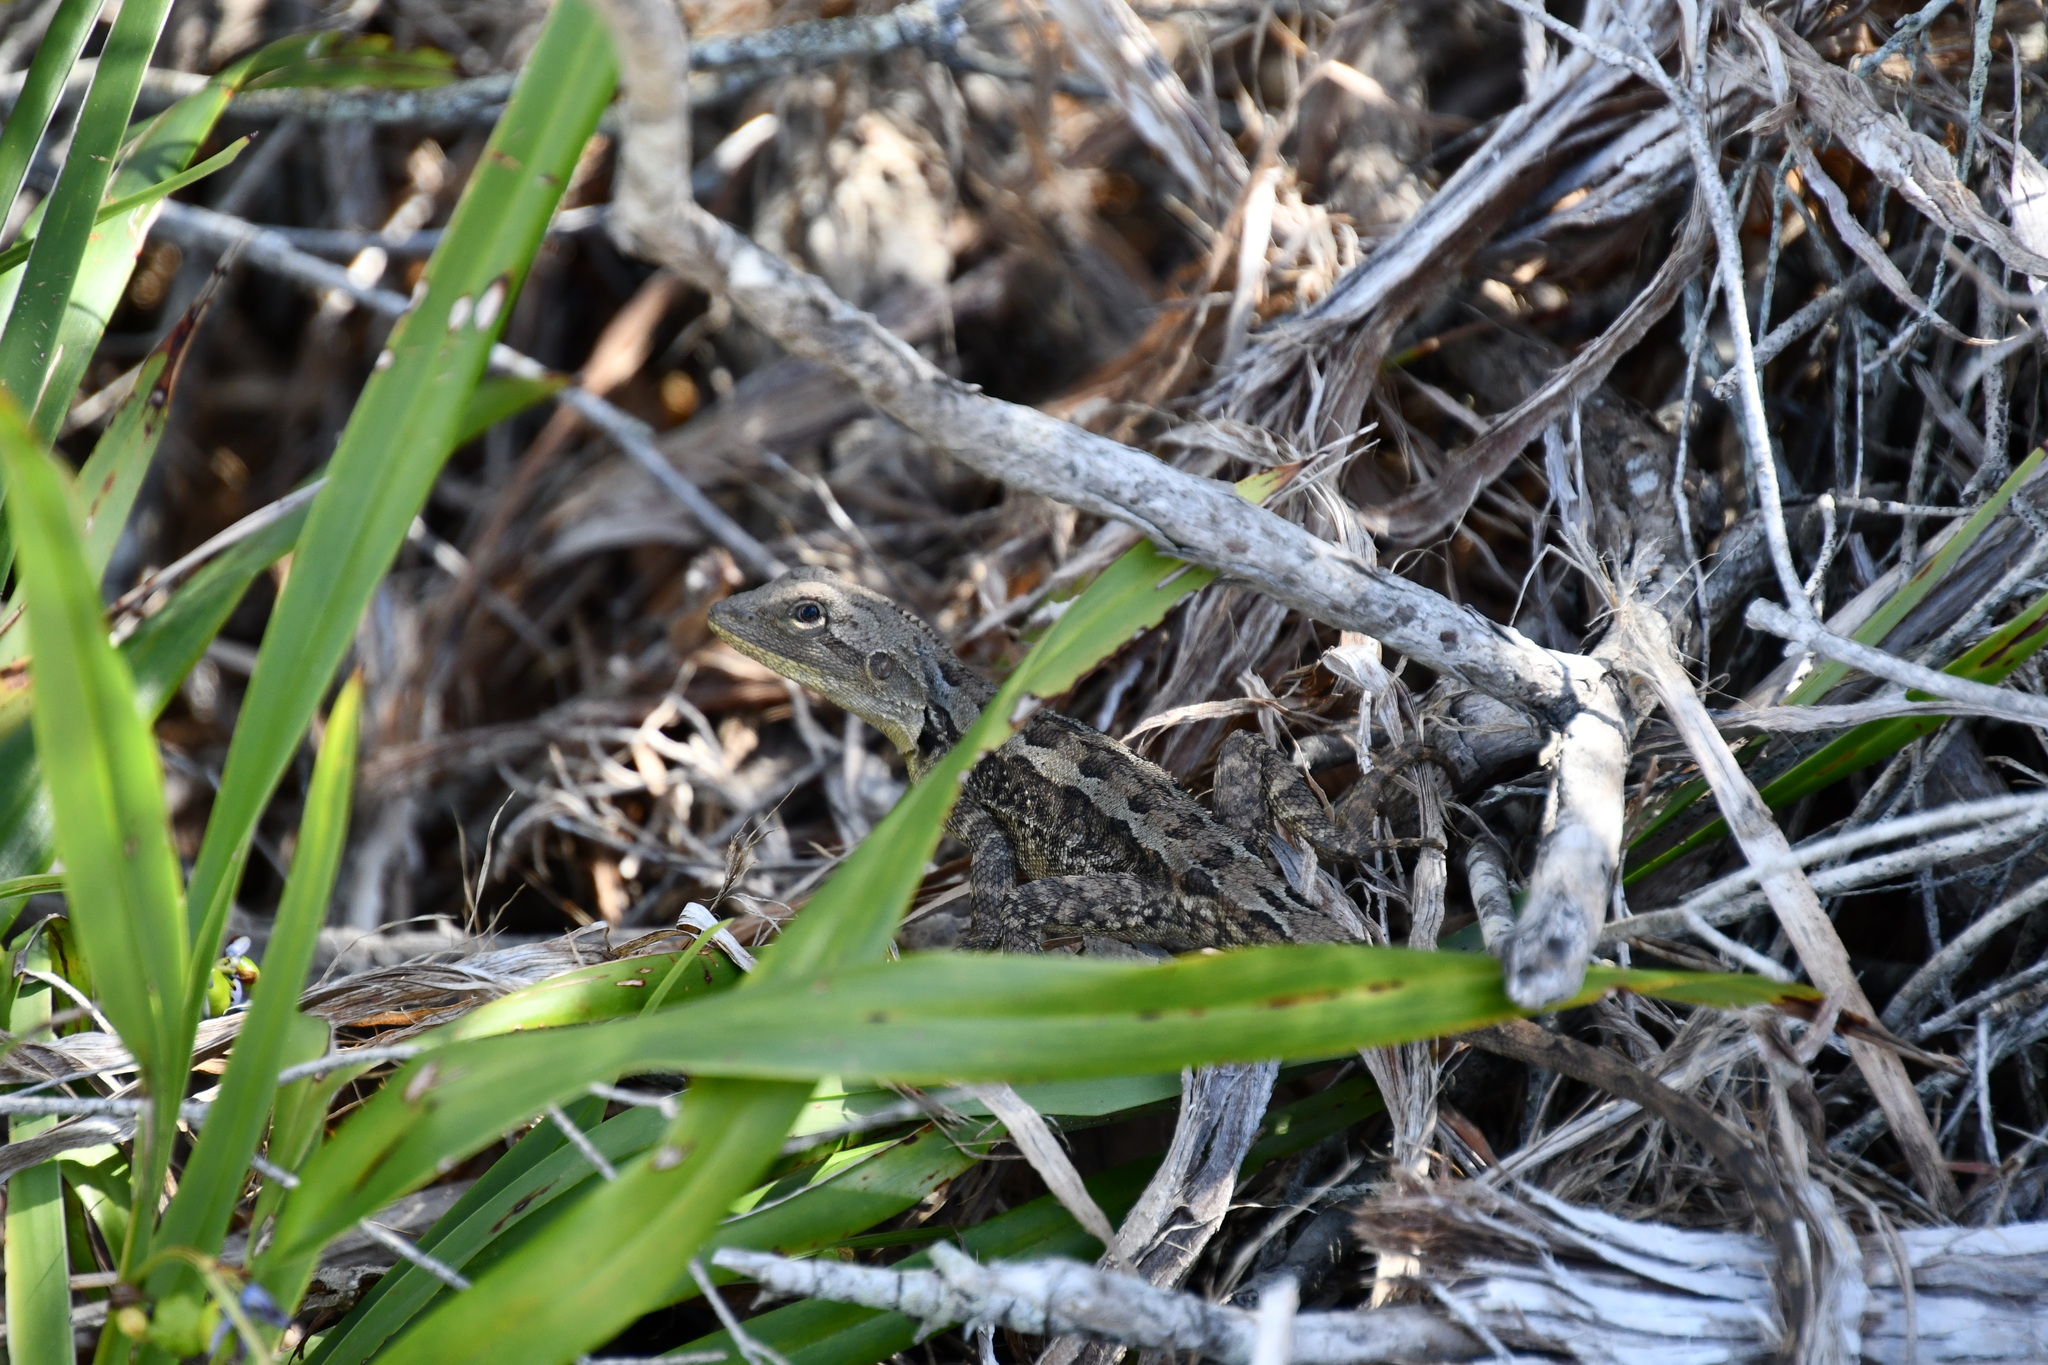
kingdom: Animalia
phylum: Chordata
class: Squamata
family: Agamidae
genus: Amphibolurus
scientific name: Amphibolurus muricatus
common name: Jacky lizard
